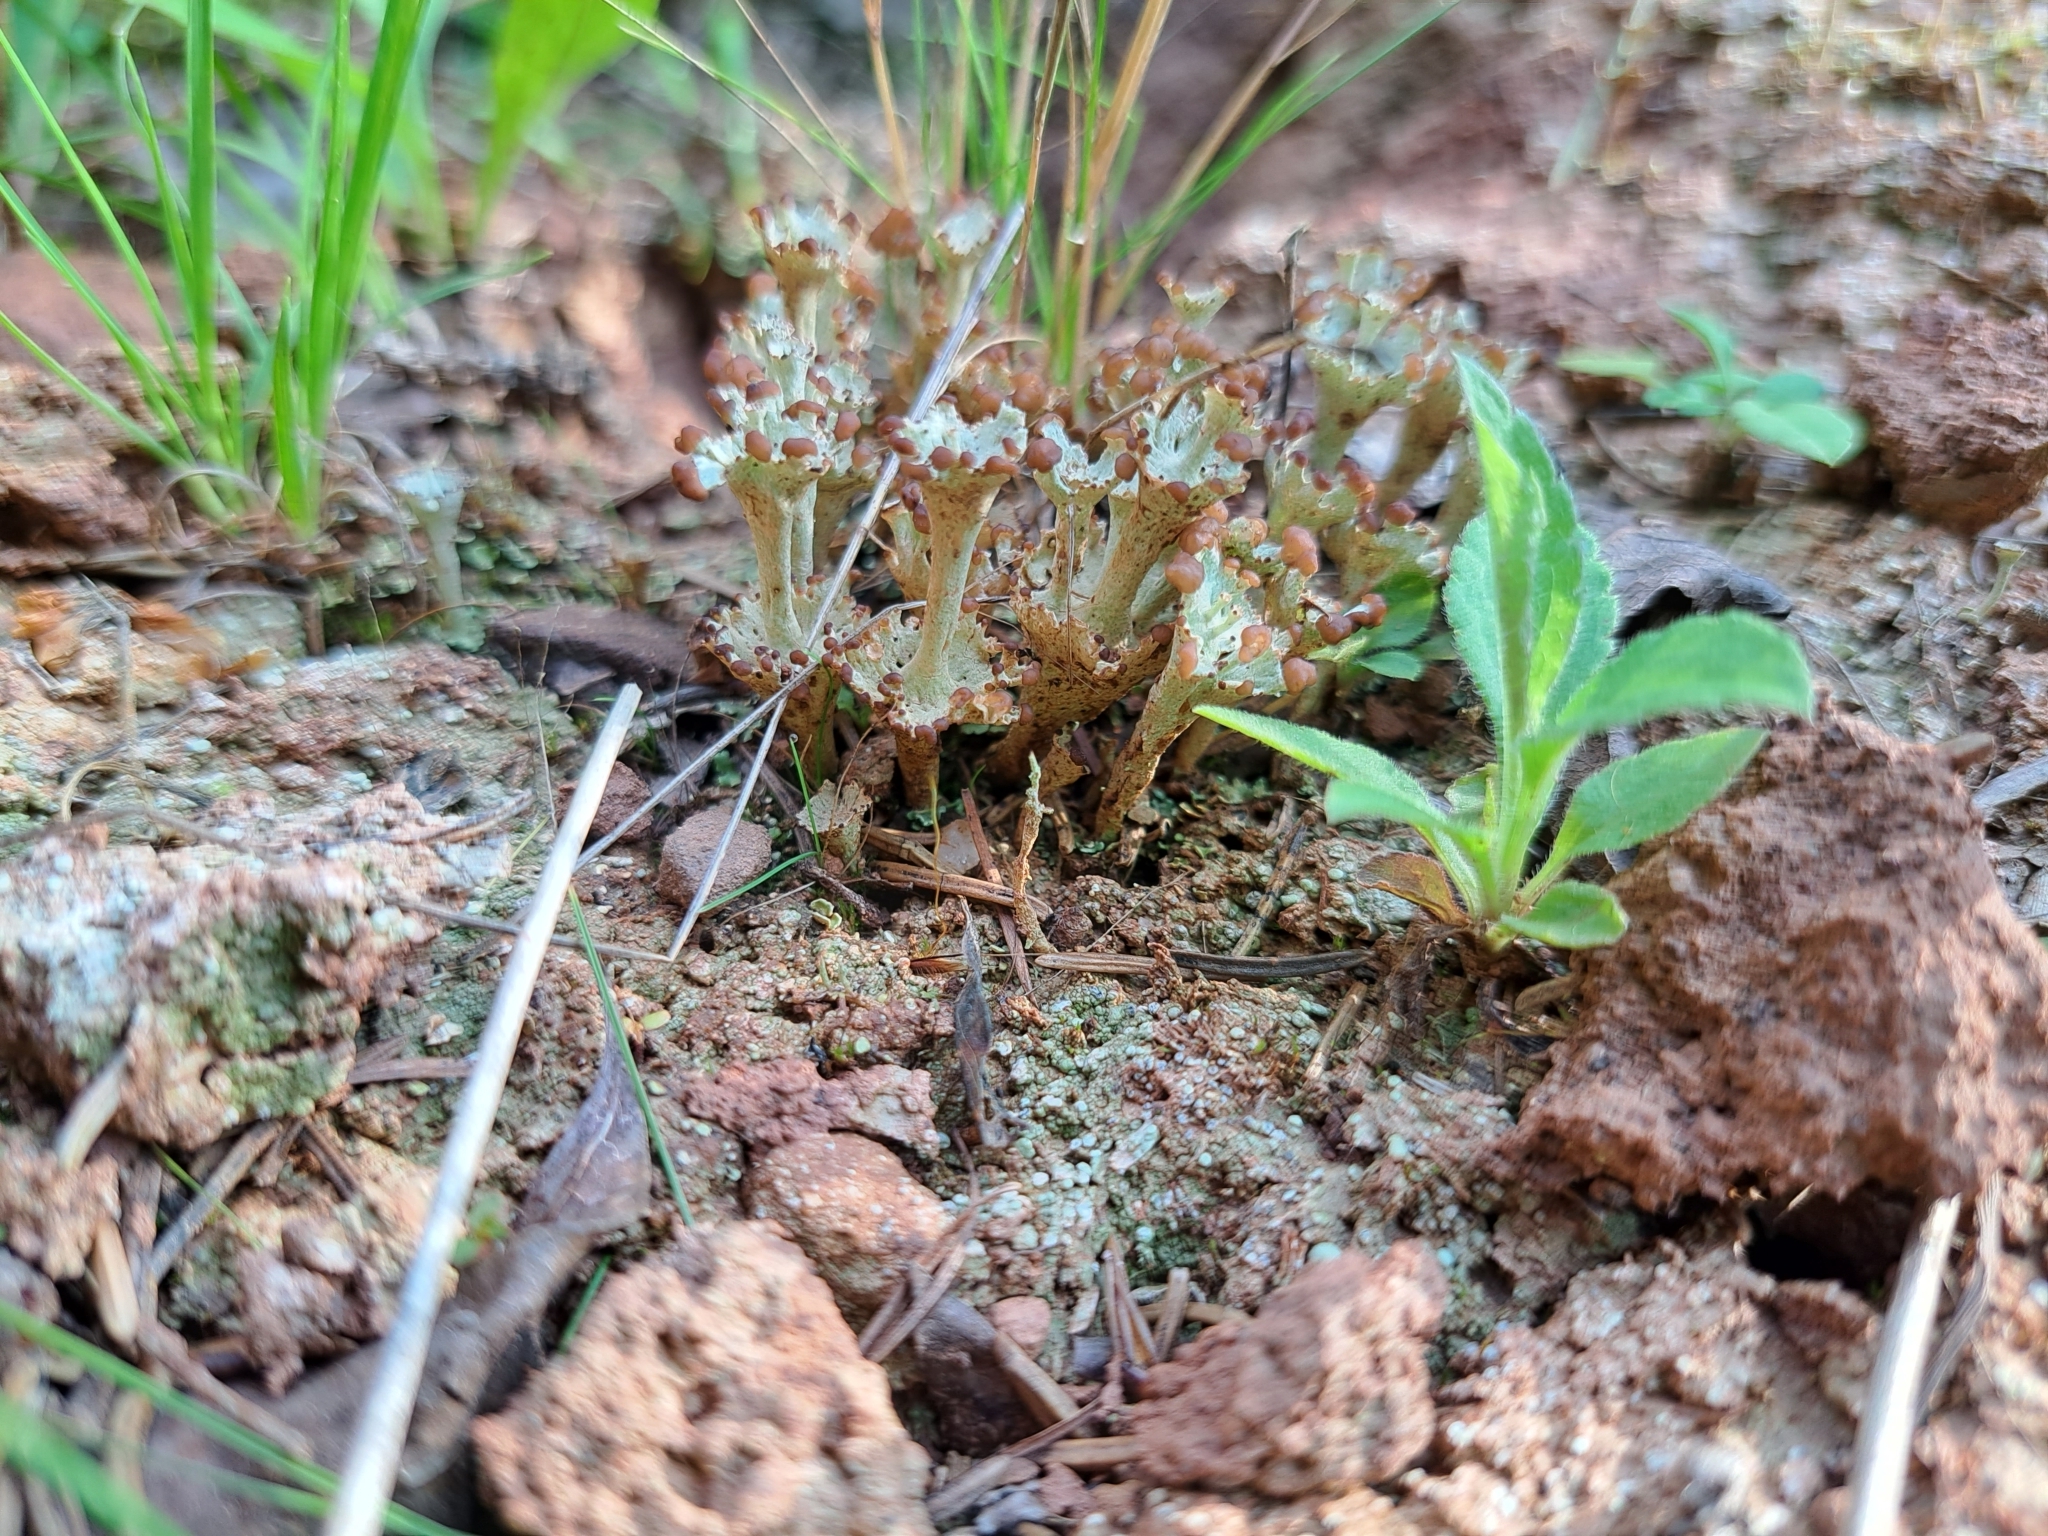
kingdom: Fungi
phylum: Ascomycota
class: Lecanoromycetes
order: Lecanorales
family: Cladoniaceae
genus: Cladonia
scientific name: Cladonia cervicornis
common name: Browned pixie-cup lichen
